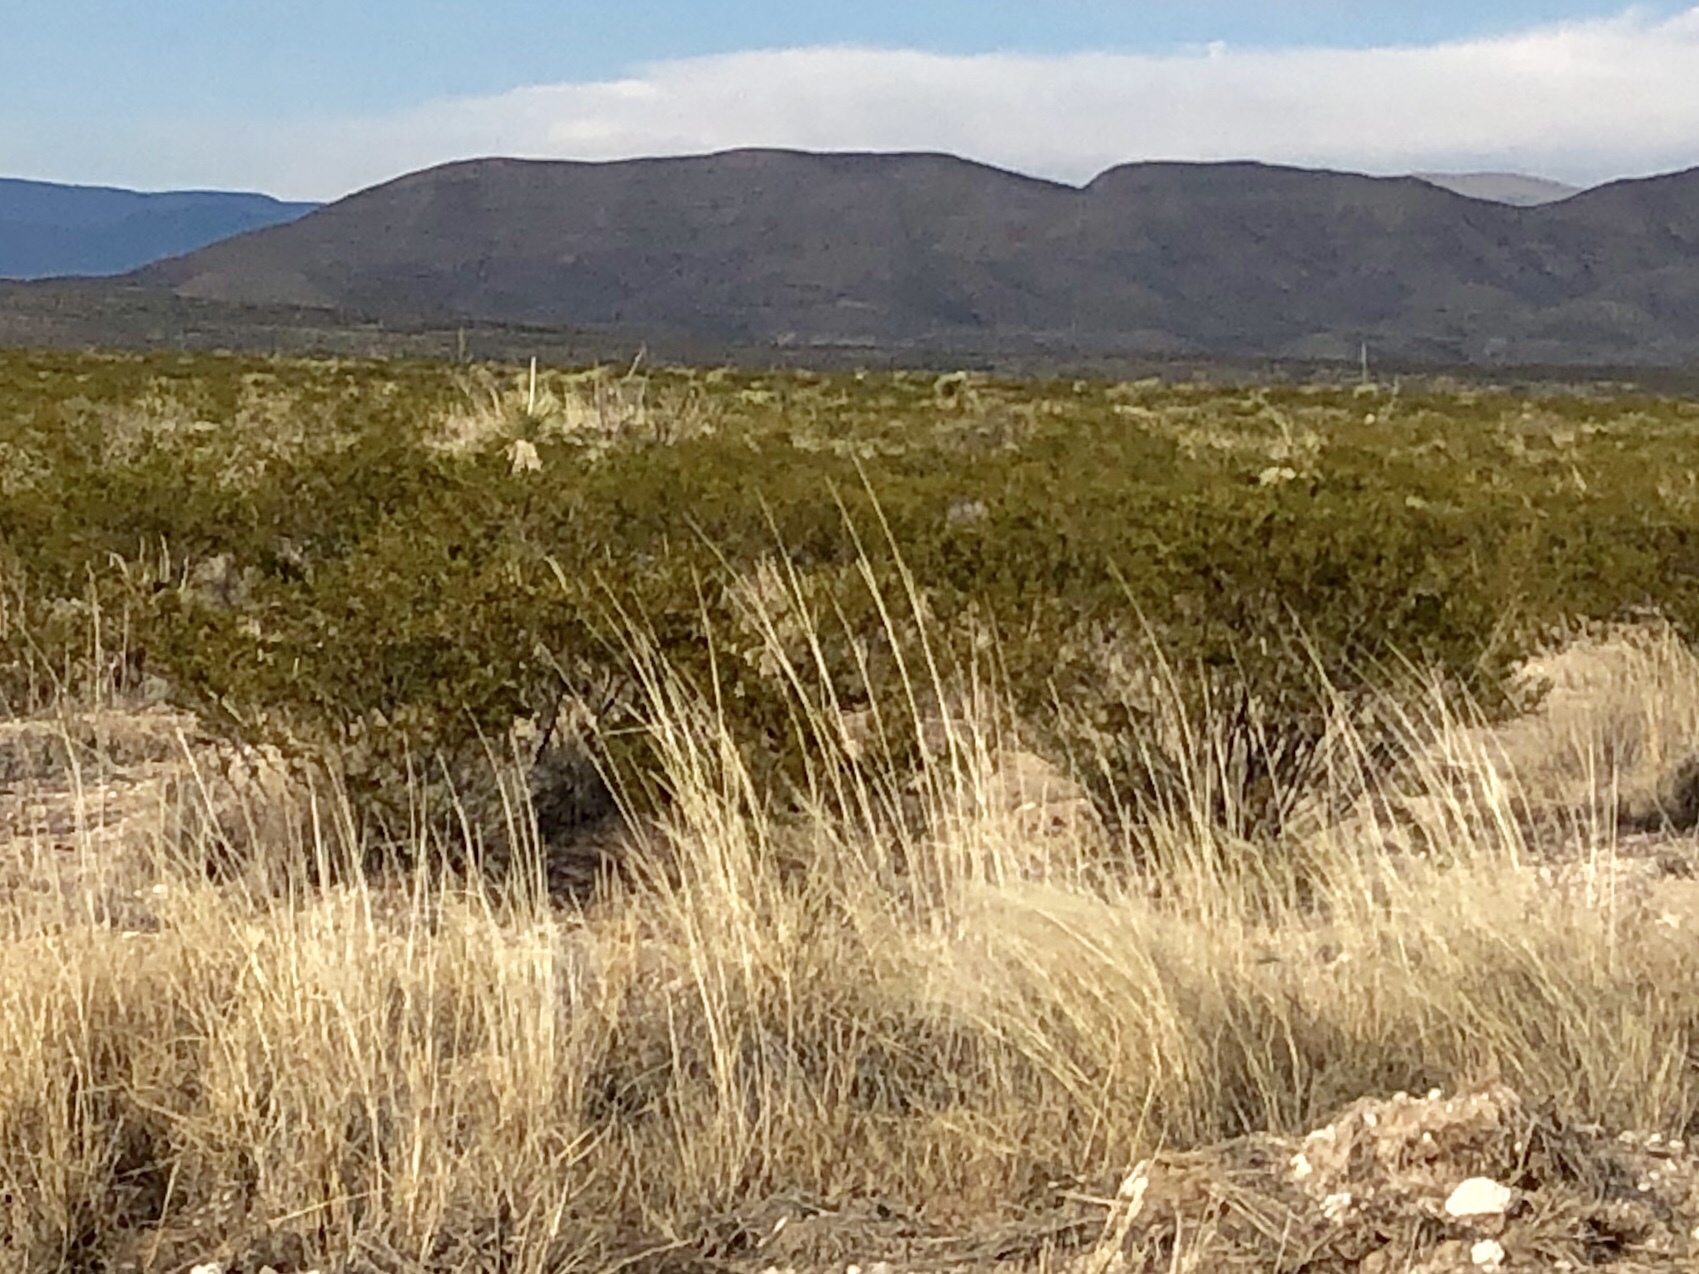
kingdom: Plantae
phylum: Tracheophyta
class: Magnoliopsida
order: Zygophyllales
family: Zygophyllaceae
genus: Larrea
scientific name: Larrea tridentata
